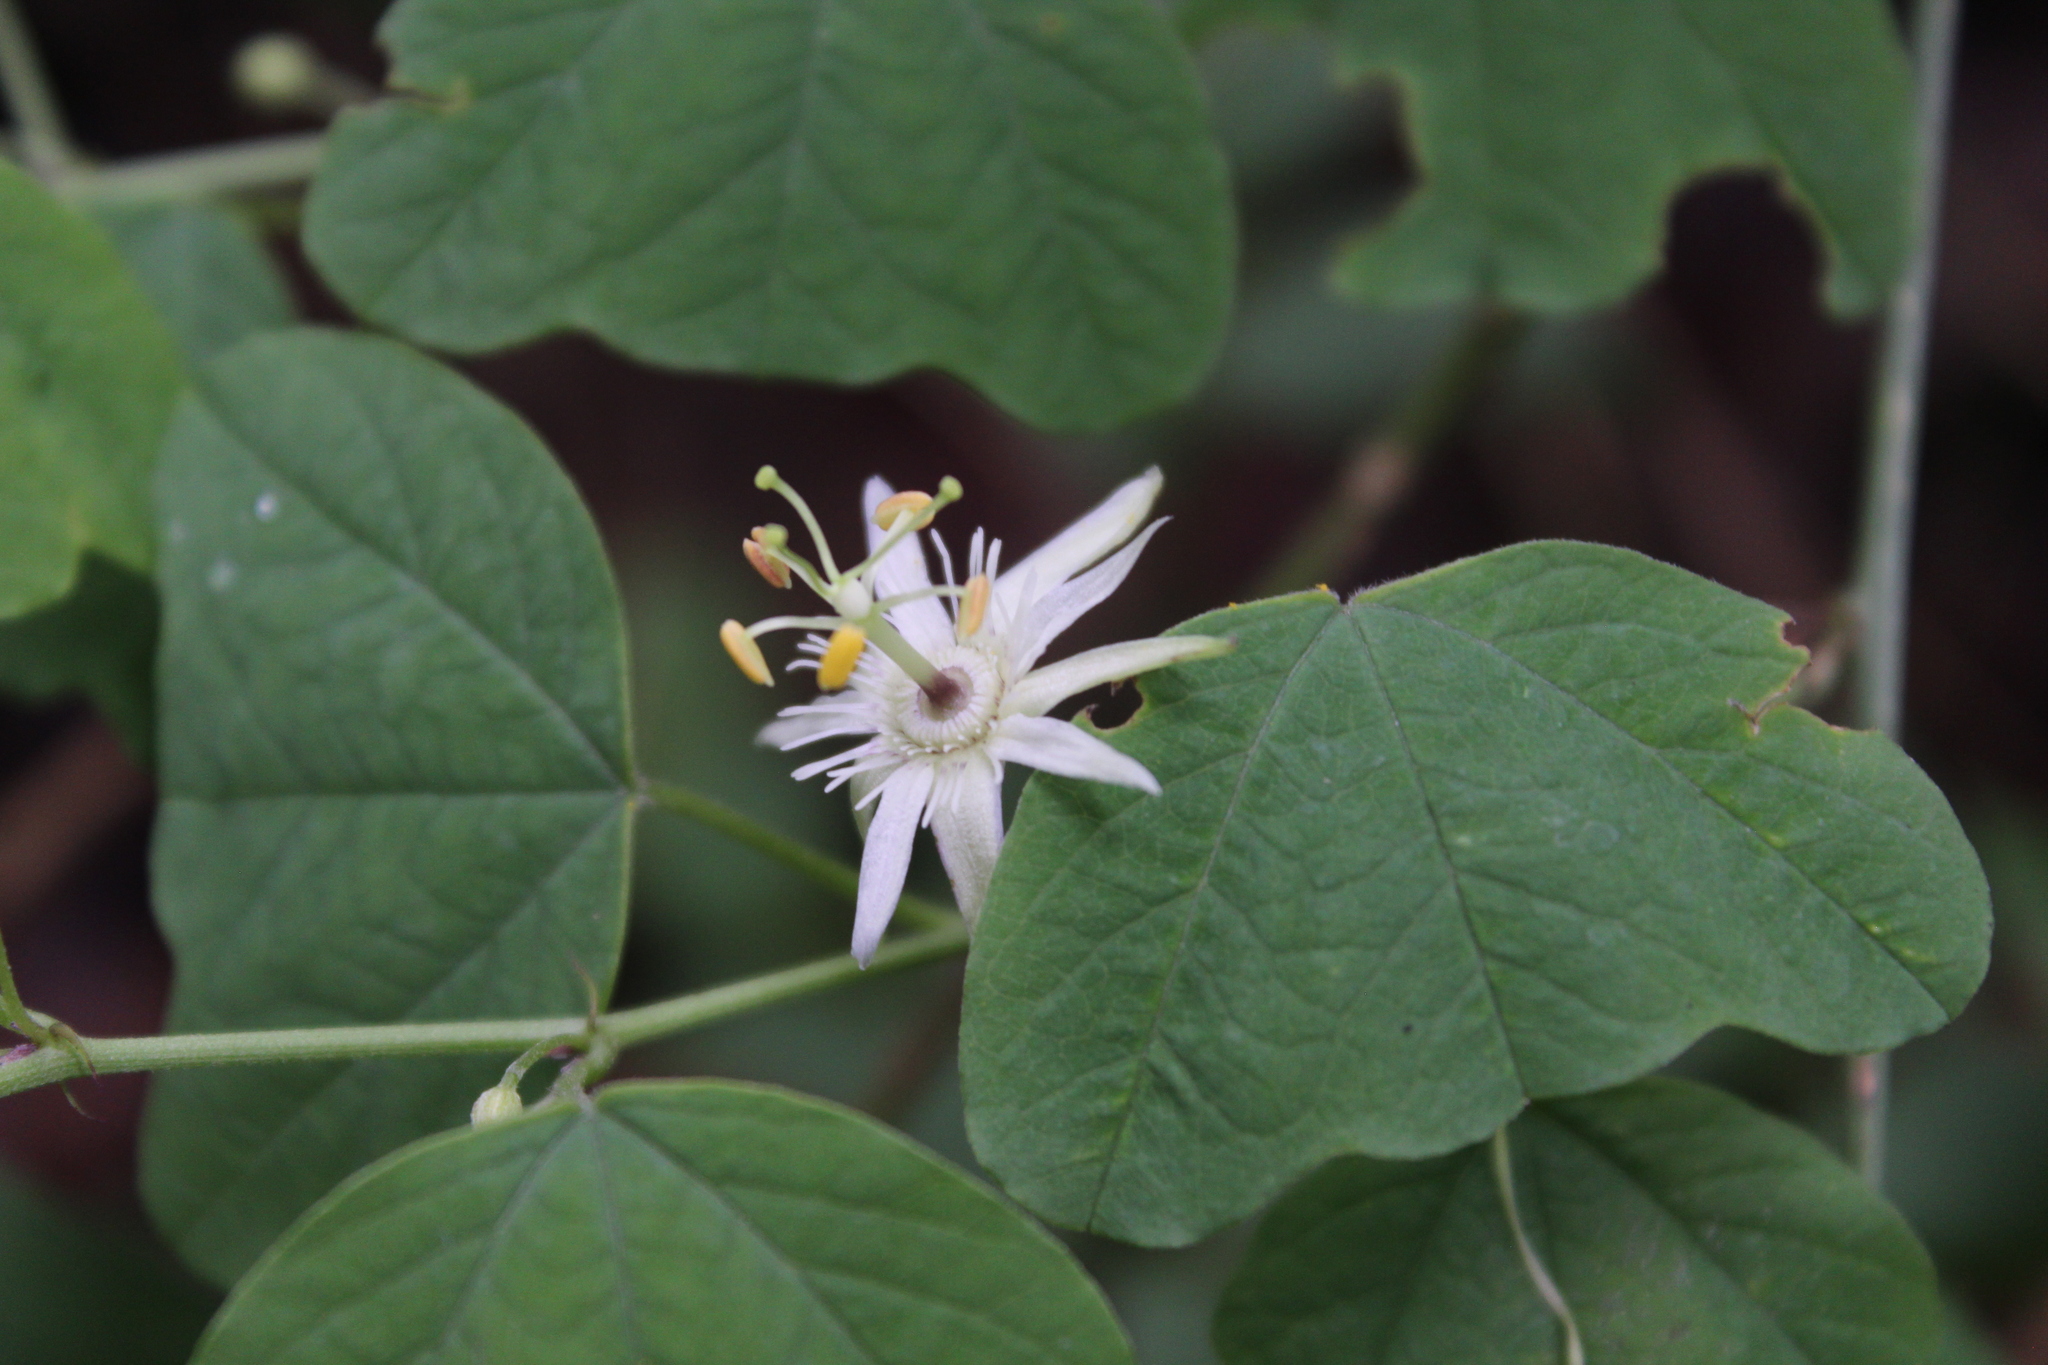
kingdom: Plantae
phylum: Tracheophyta
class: Magnoliopsida
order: Malpighiales
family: Passifloraceae
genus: Passiflora
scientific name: Passiflora pavonis
